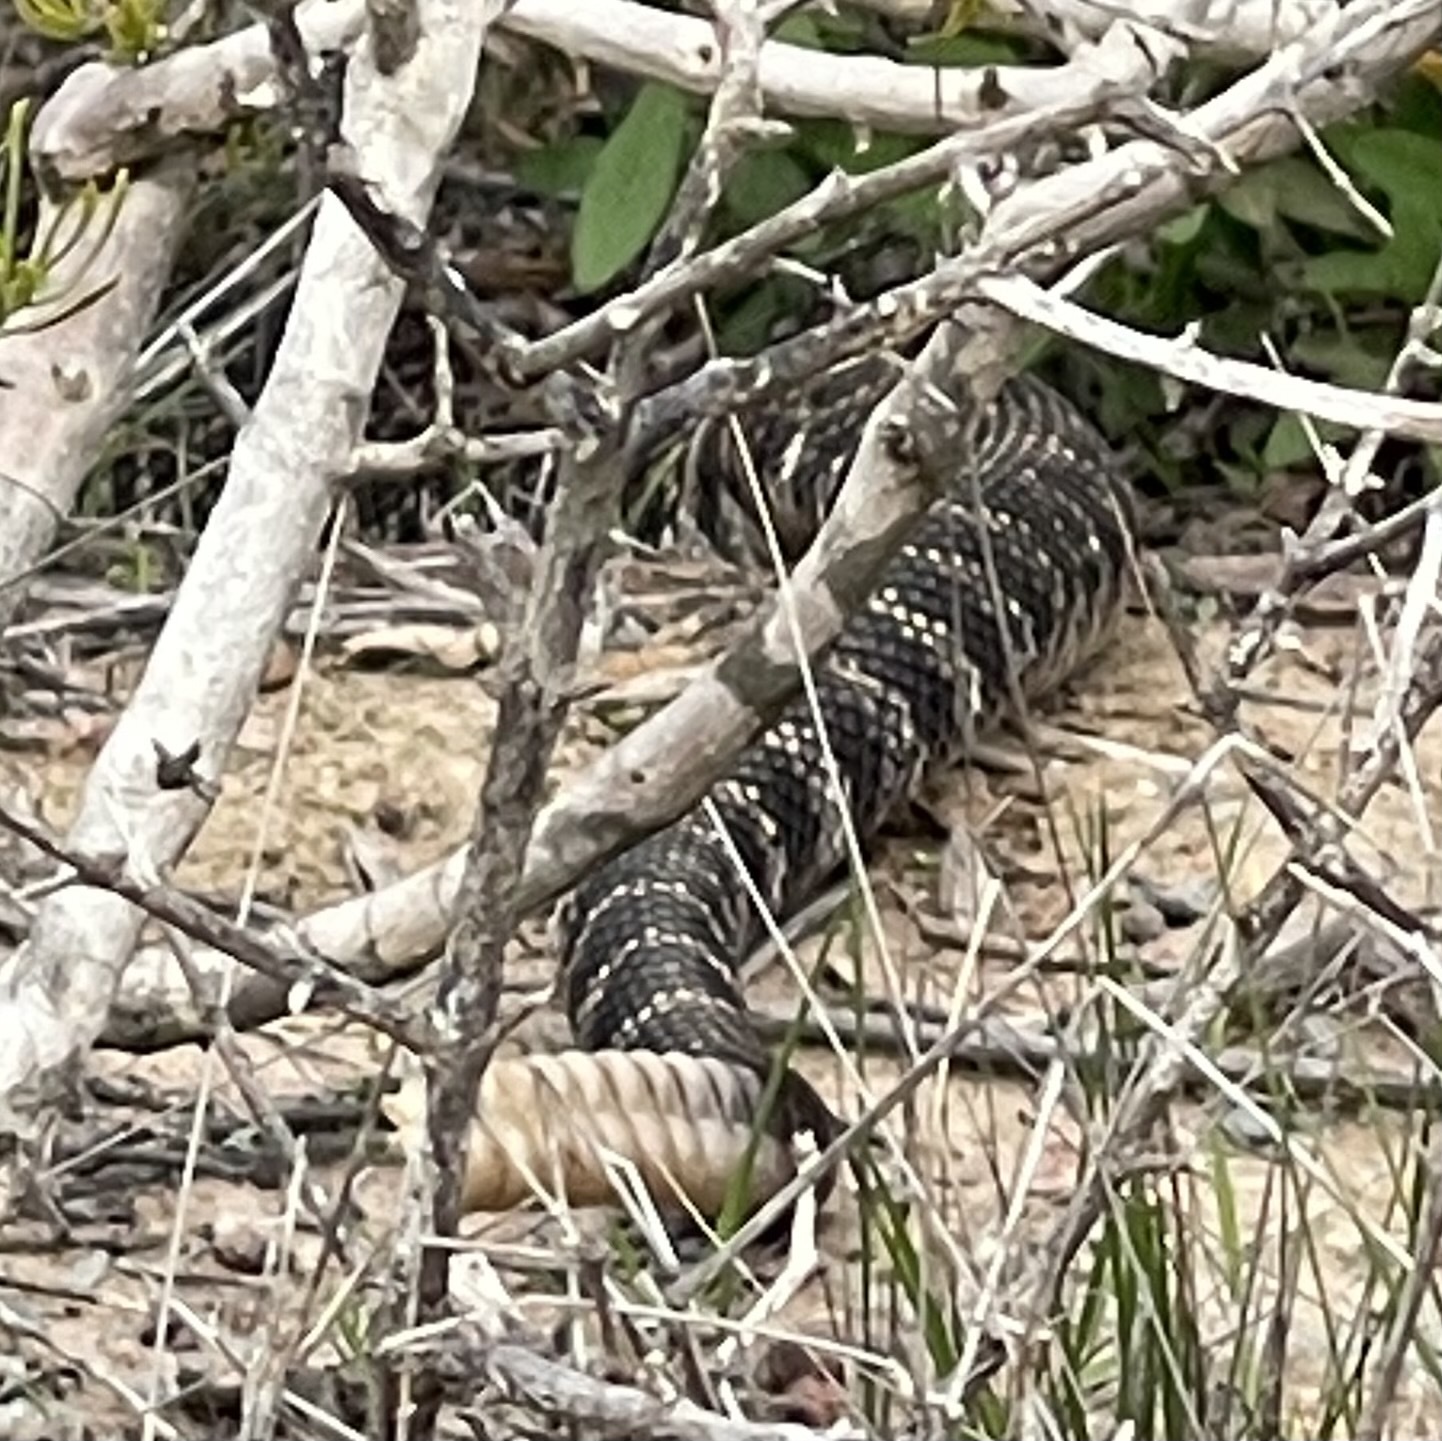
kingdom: Animalia
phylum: Chordata
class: Squamata
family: Viperidae
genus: Crotalus
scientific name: Crotalus oreganus
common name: Abyssus
